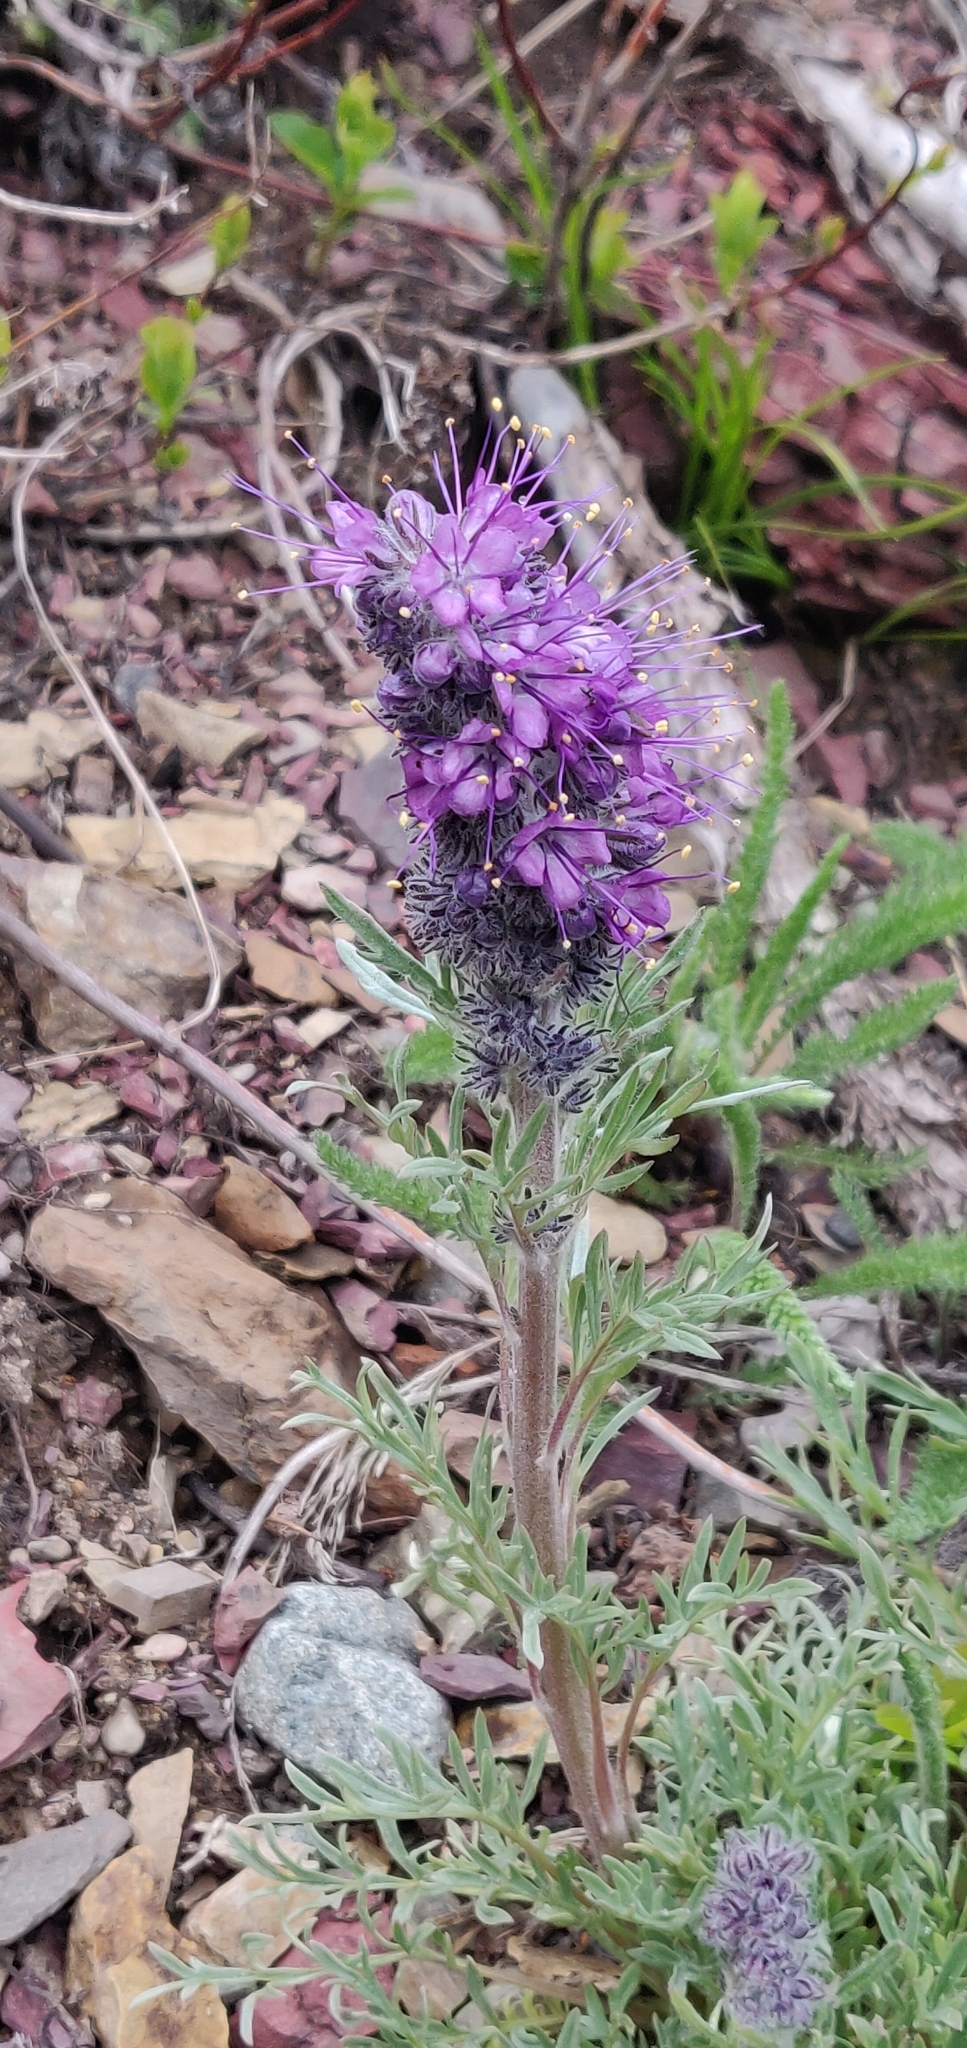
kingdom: Plantae
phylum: Tracheophyta
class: Magnoliopsida
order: Boraginales
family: Hydrophyllaceae
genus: Phacelia
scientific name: Phacelia sericea
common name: Silky phacelia
